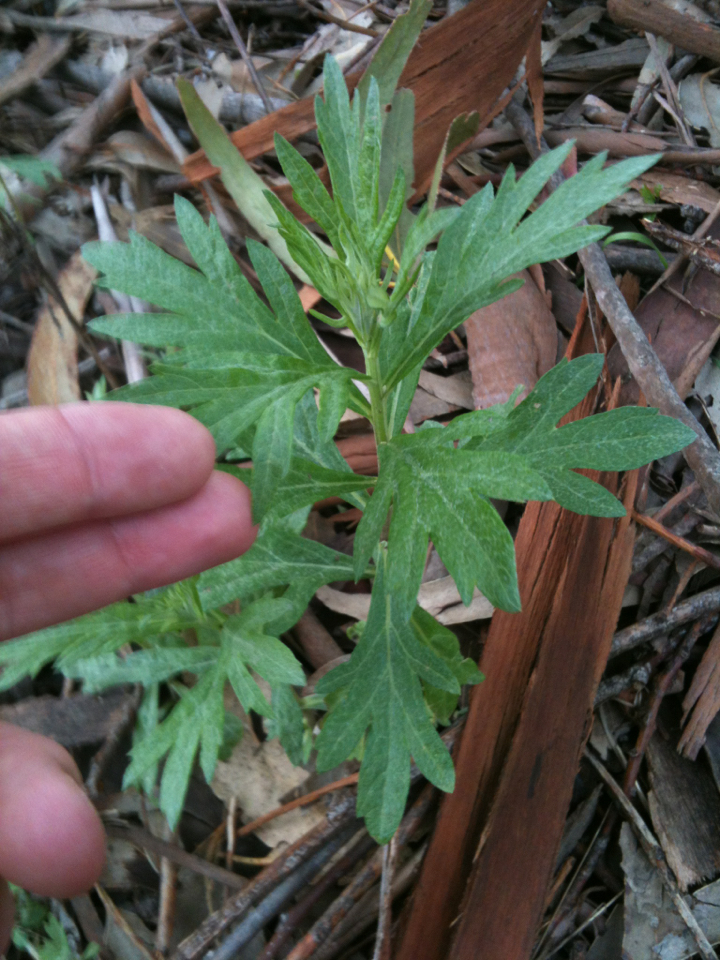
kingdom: Plantae
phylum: Tracheophyta
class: Magnoliopsida
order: Asterales
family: Asteraceae
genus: Artemisia
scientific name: Artemisia douglasiana
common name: Northwest mugwort
